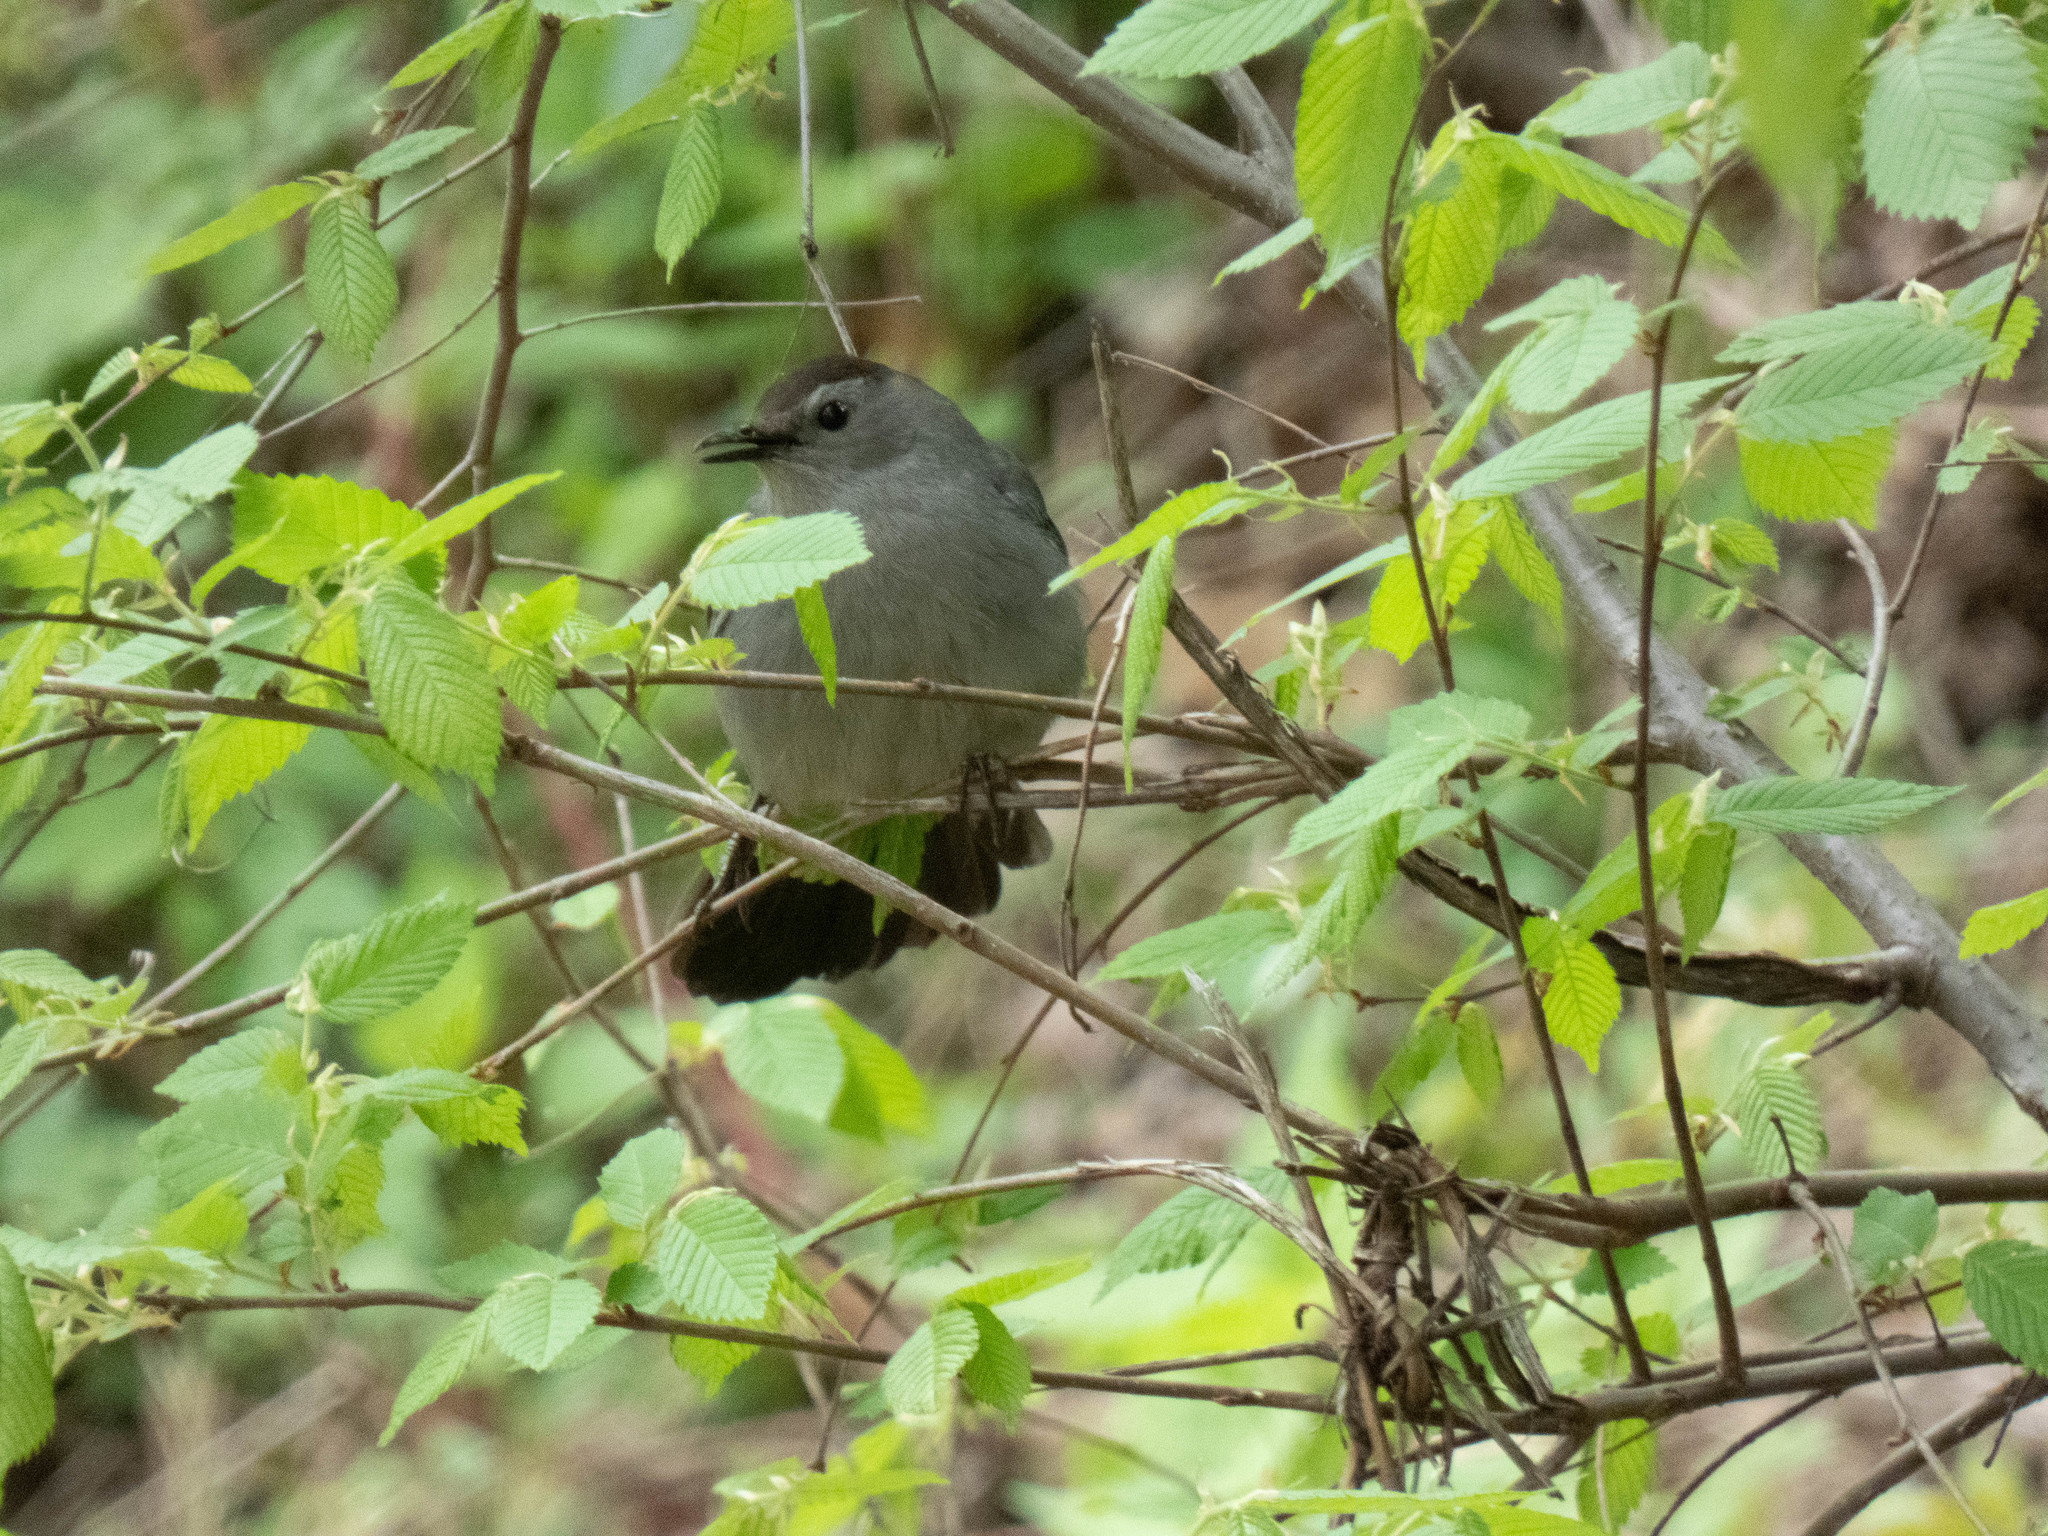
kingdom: Animalia
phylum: Chordata
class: Aves
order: Passeriformes
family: Mimidae
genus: Dumetella
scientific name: Dumetella carolinensis
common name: Gray catbird
